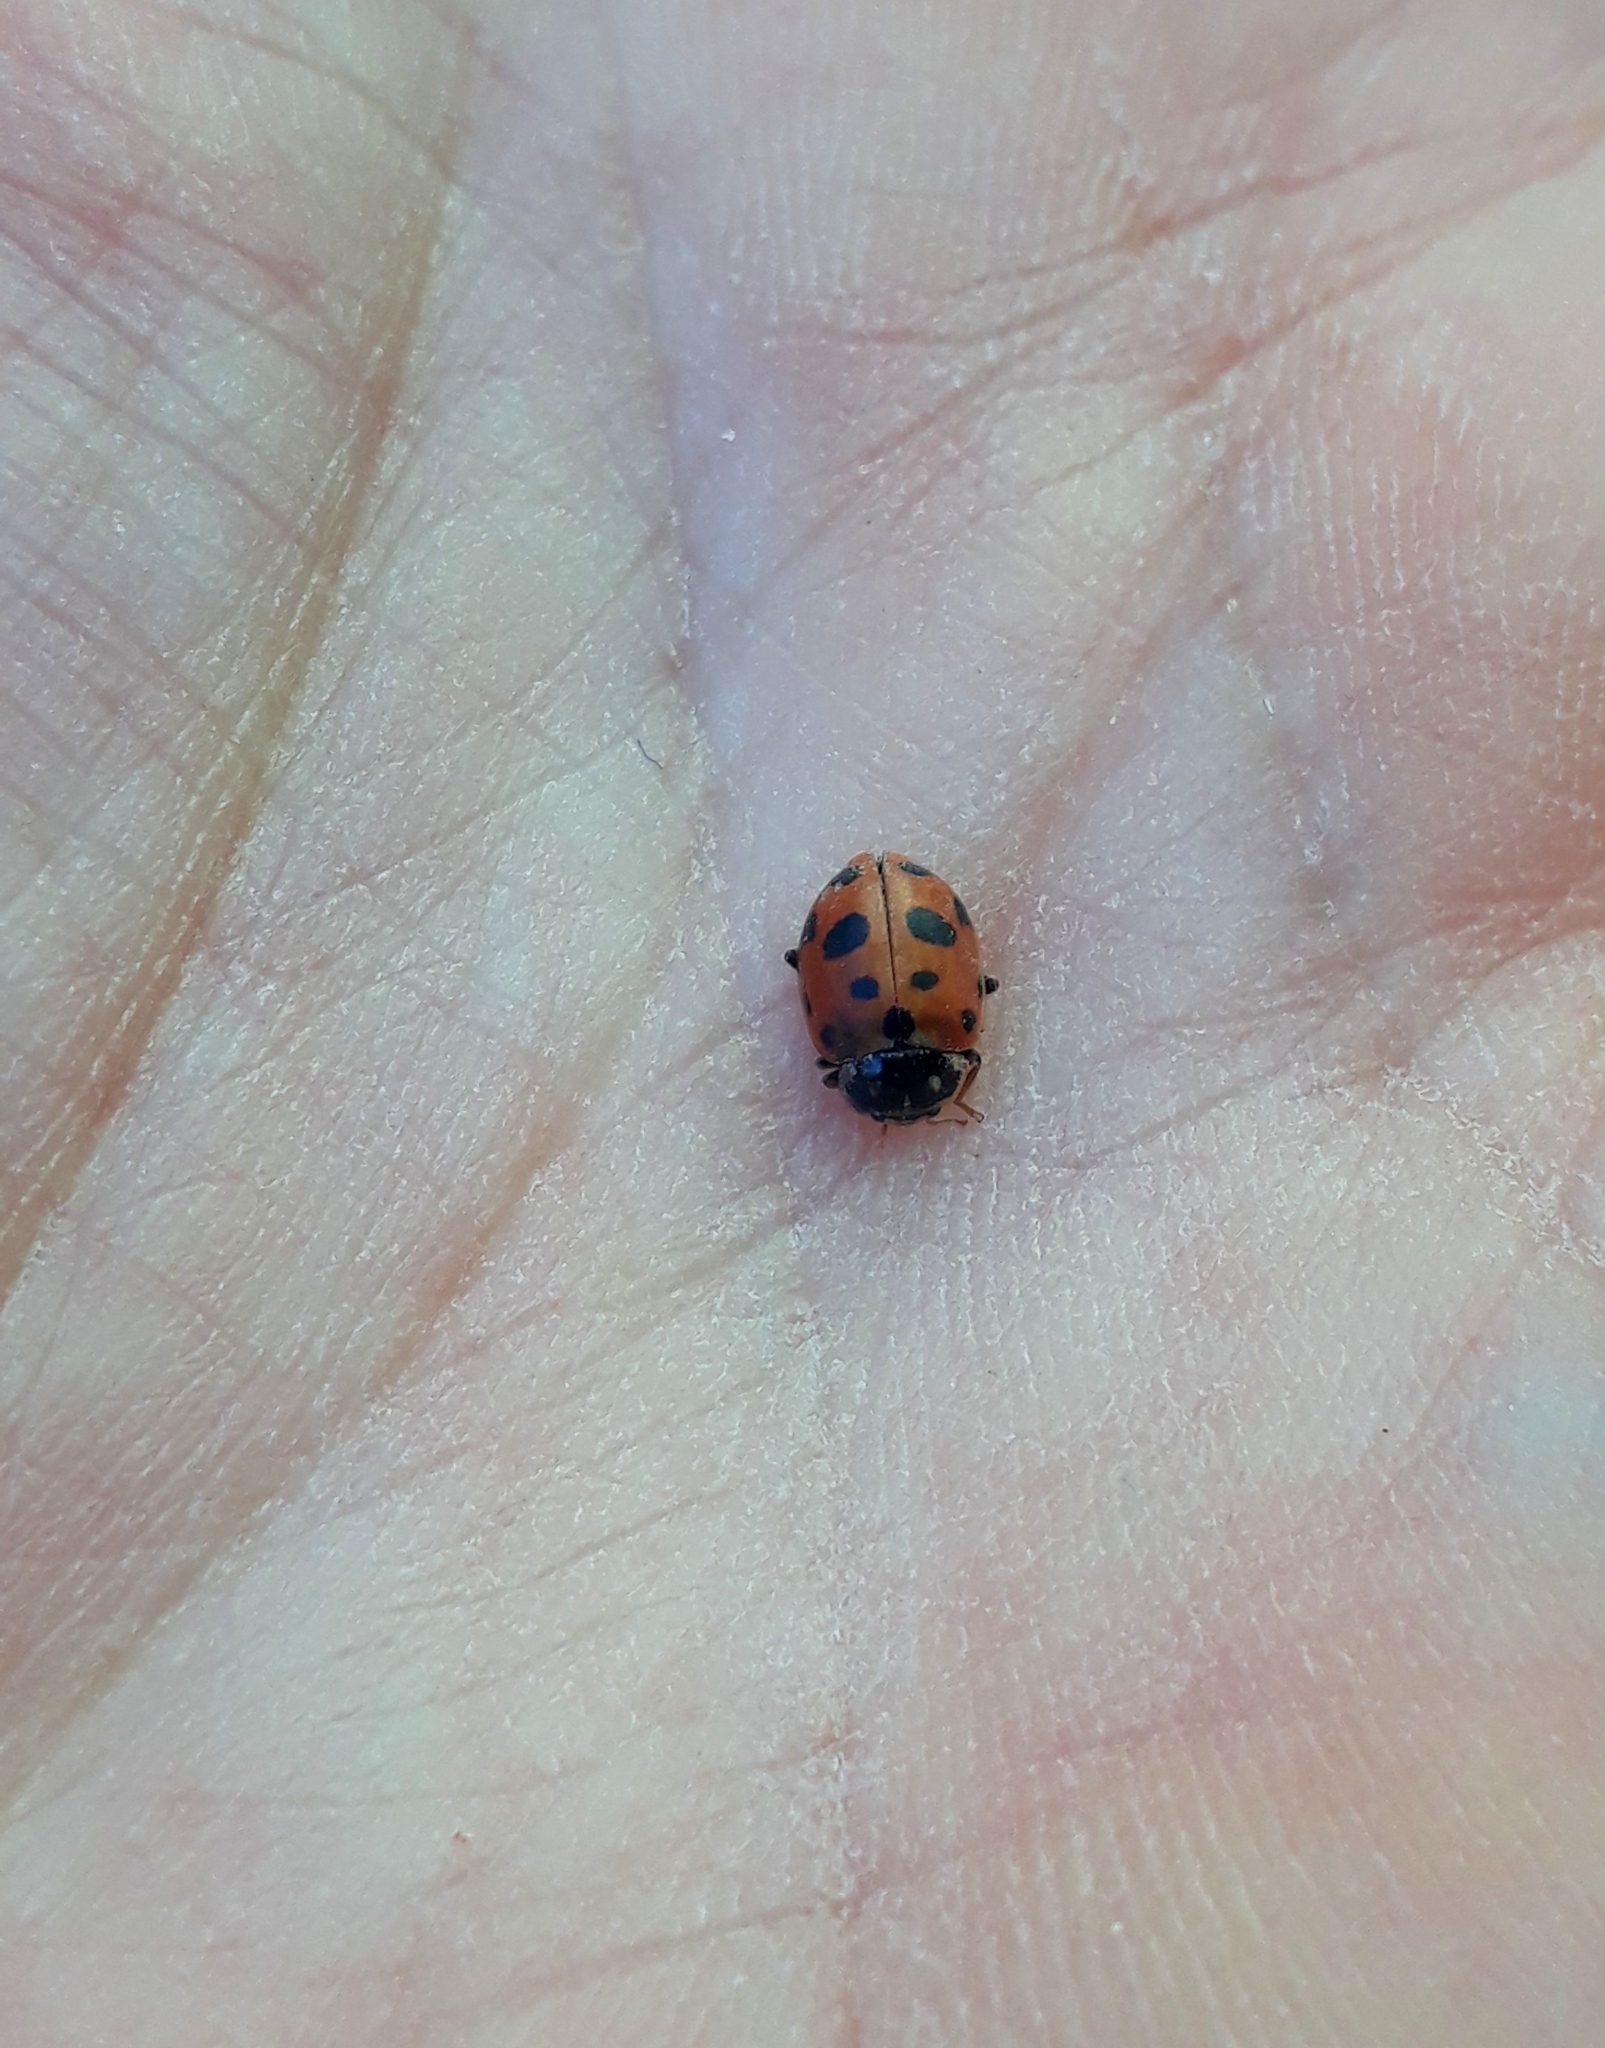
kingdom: Animalia
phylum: Arthropoda
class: Insecta
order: Coleoptera
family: Coccinellidae
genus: Hippodamia
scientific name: Hippodamia variegata
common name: Ladybird beetle
